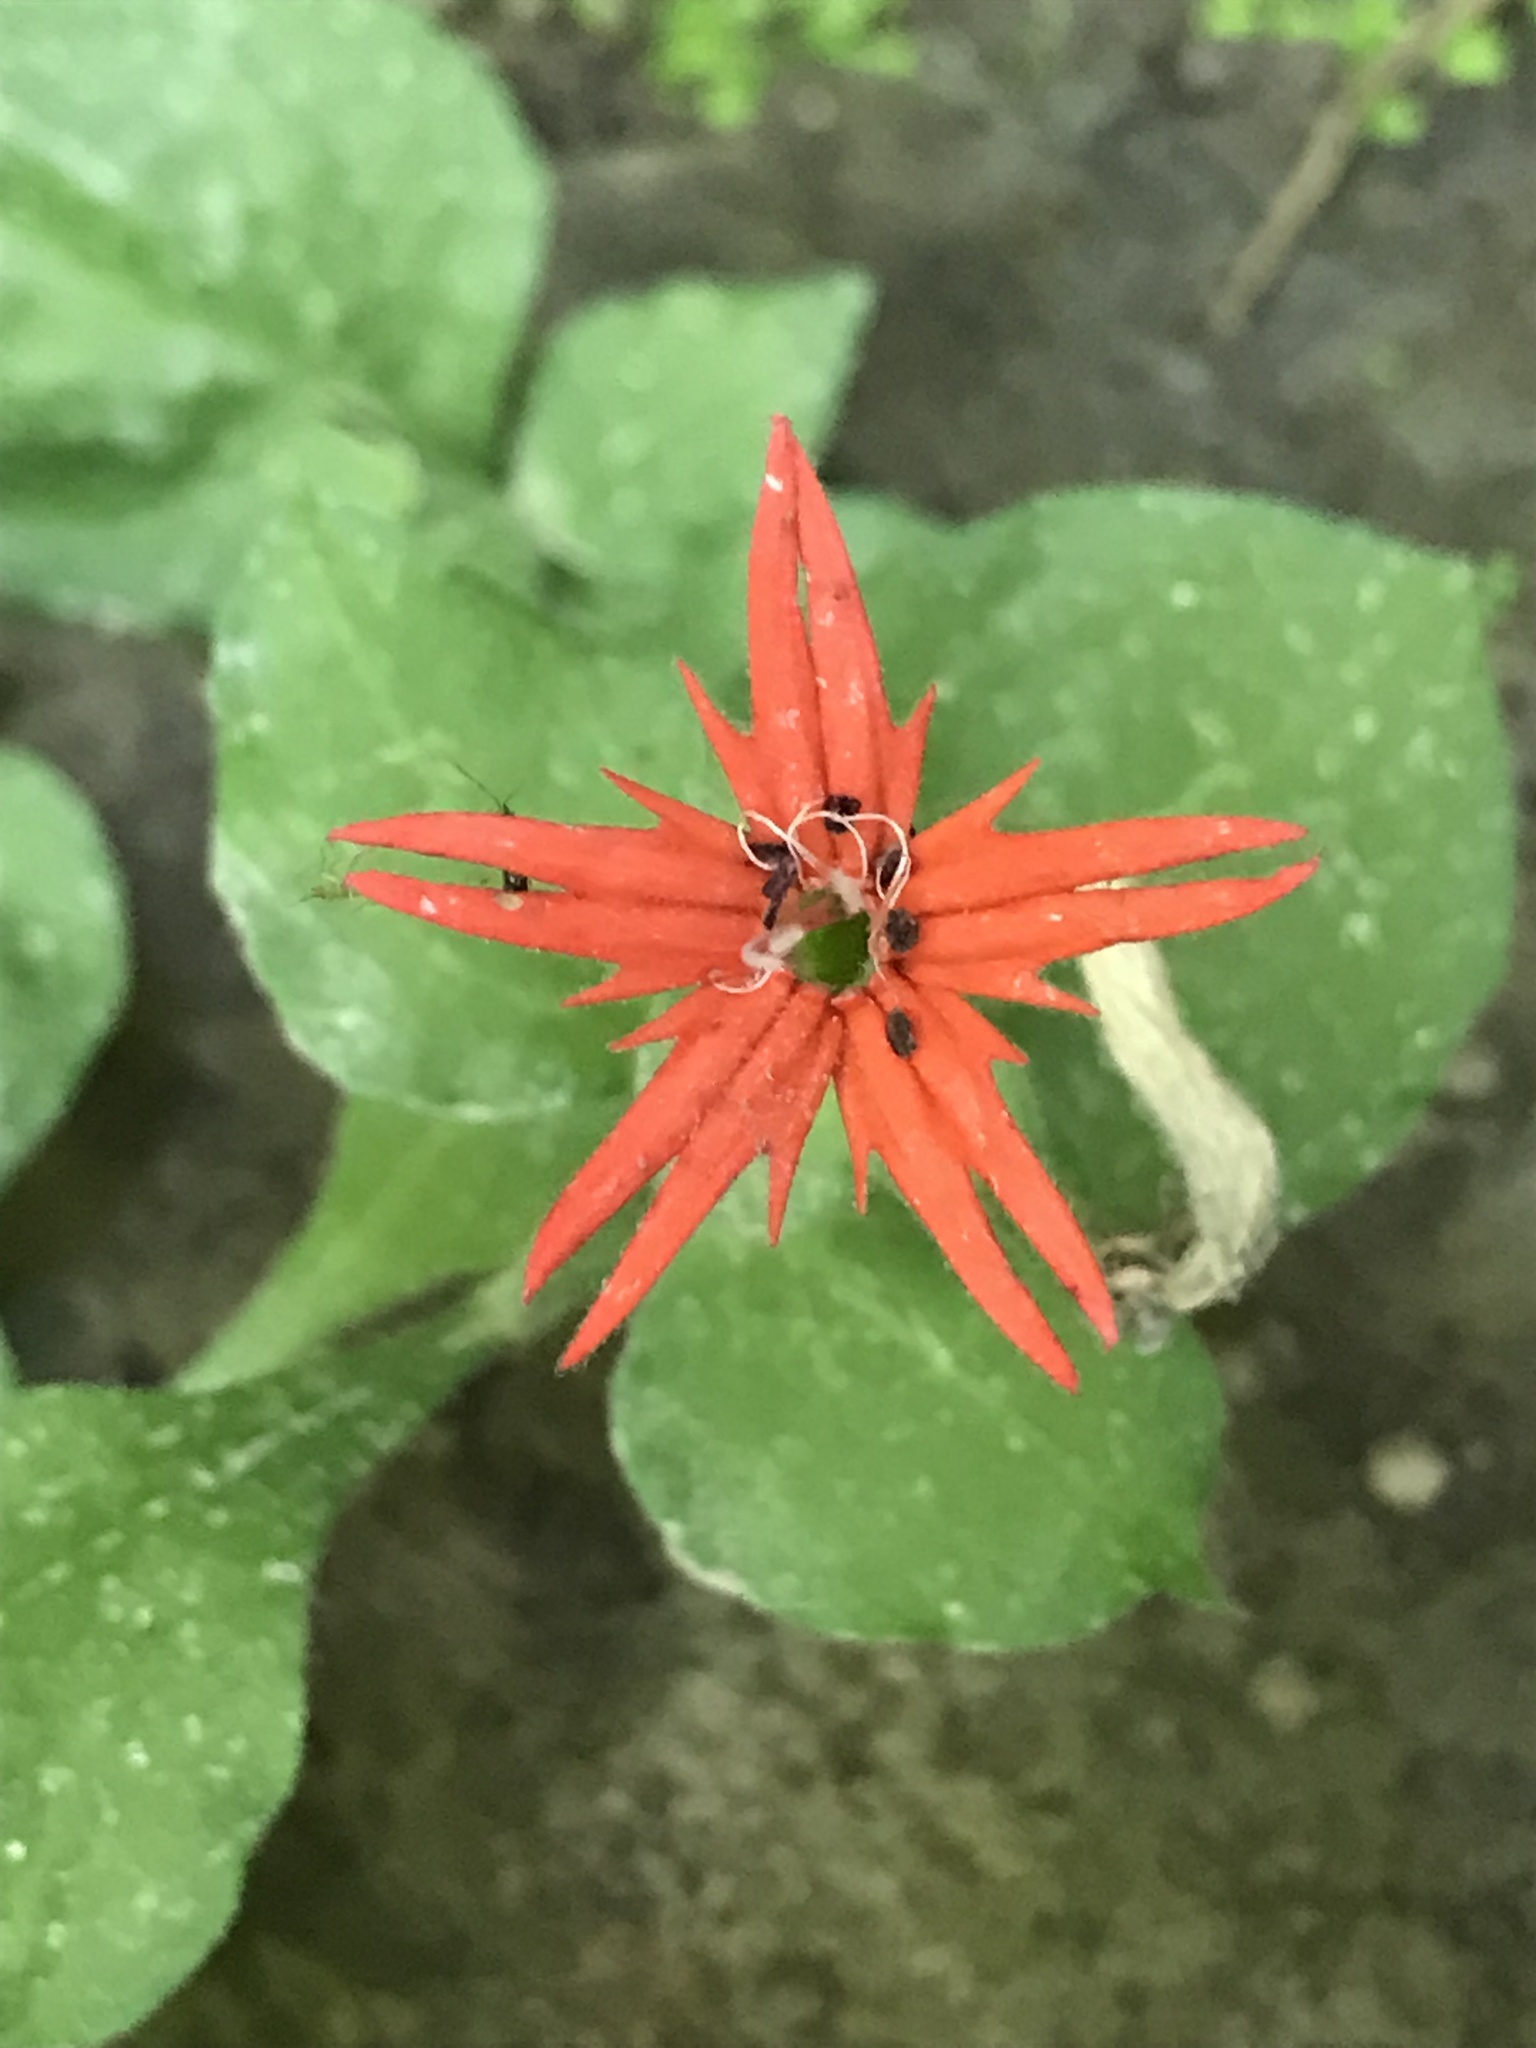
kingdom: Plantae
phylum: Tracheophyta
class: Magnoliopsida
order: Caryophyllales
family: Caryophyllaceae
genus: Silene
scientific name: Silene rotundifolia
